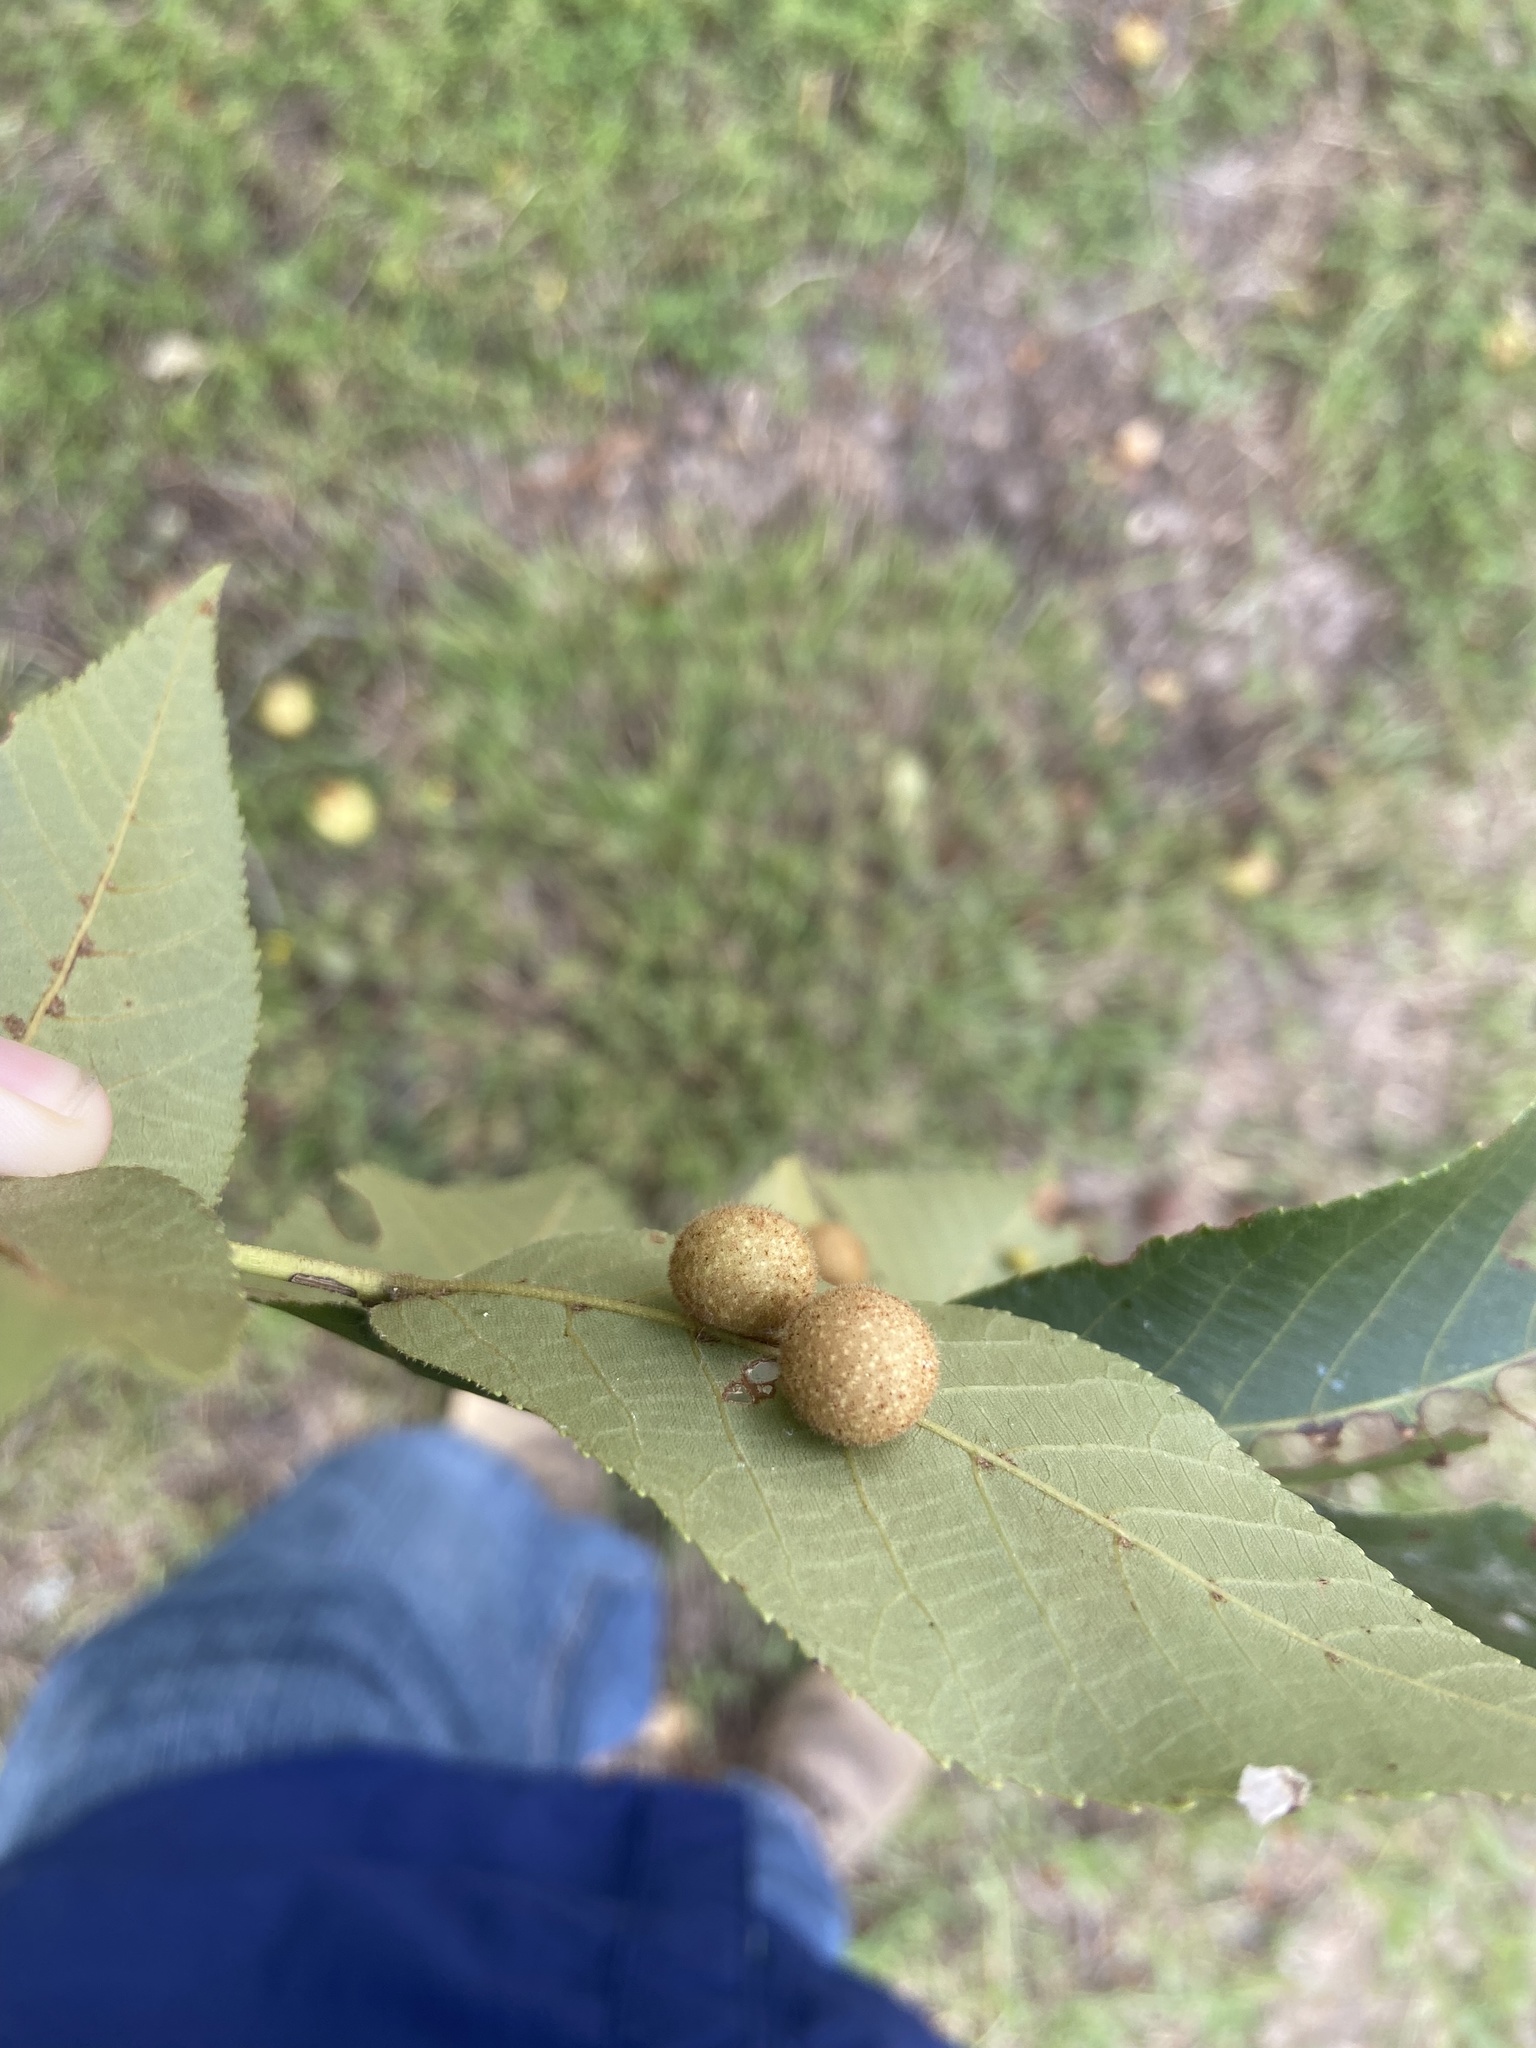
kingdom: Animalia
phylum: Arthropoda
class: Insecta
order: Diptera
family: Cecidomyiidae
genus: Caryomyia
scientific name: Caryomyia spherica
